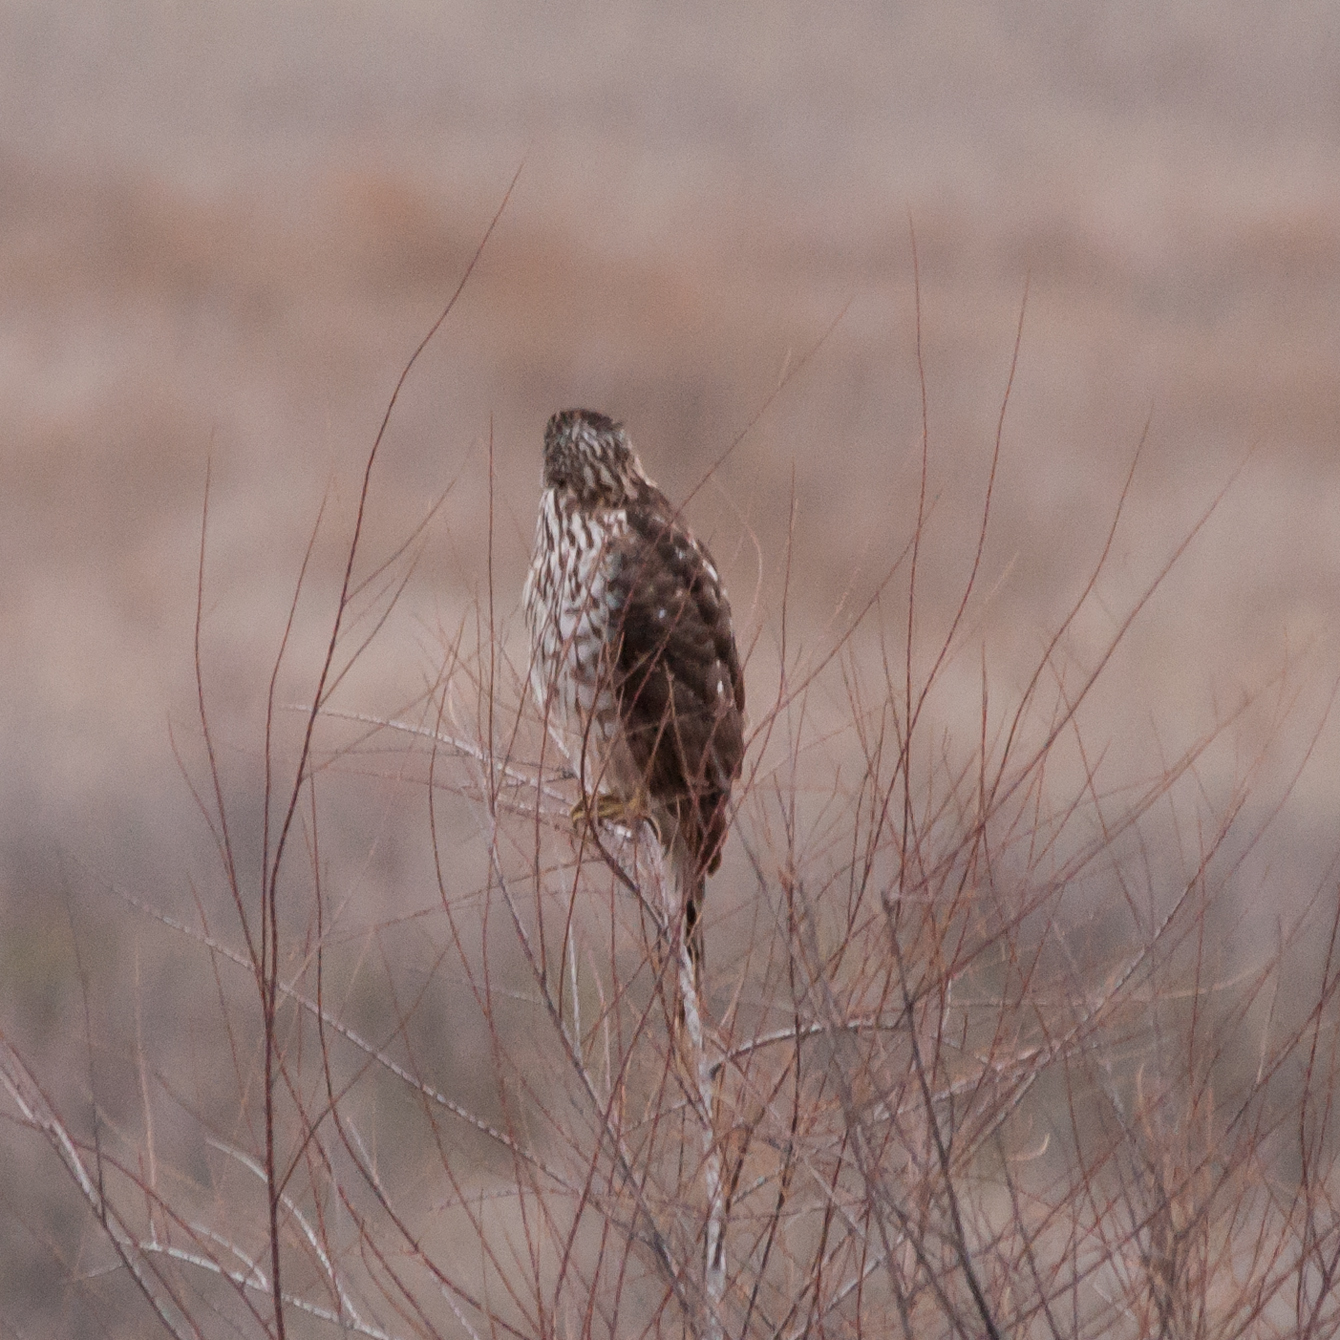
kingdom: Animalia
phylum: Chordata
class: Aves
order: Accipitriformes
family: Accipitridae
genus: Accipiter
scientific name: Accipiter cooperii
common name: Cooper's hawk
